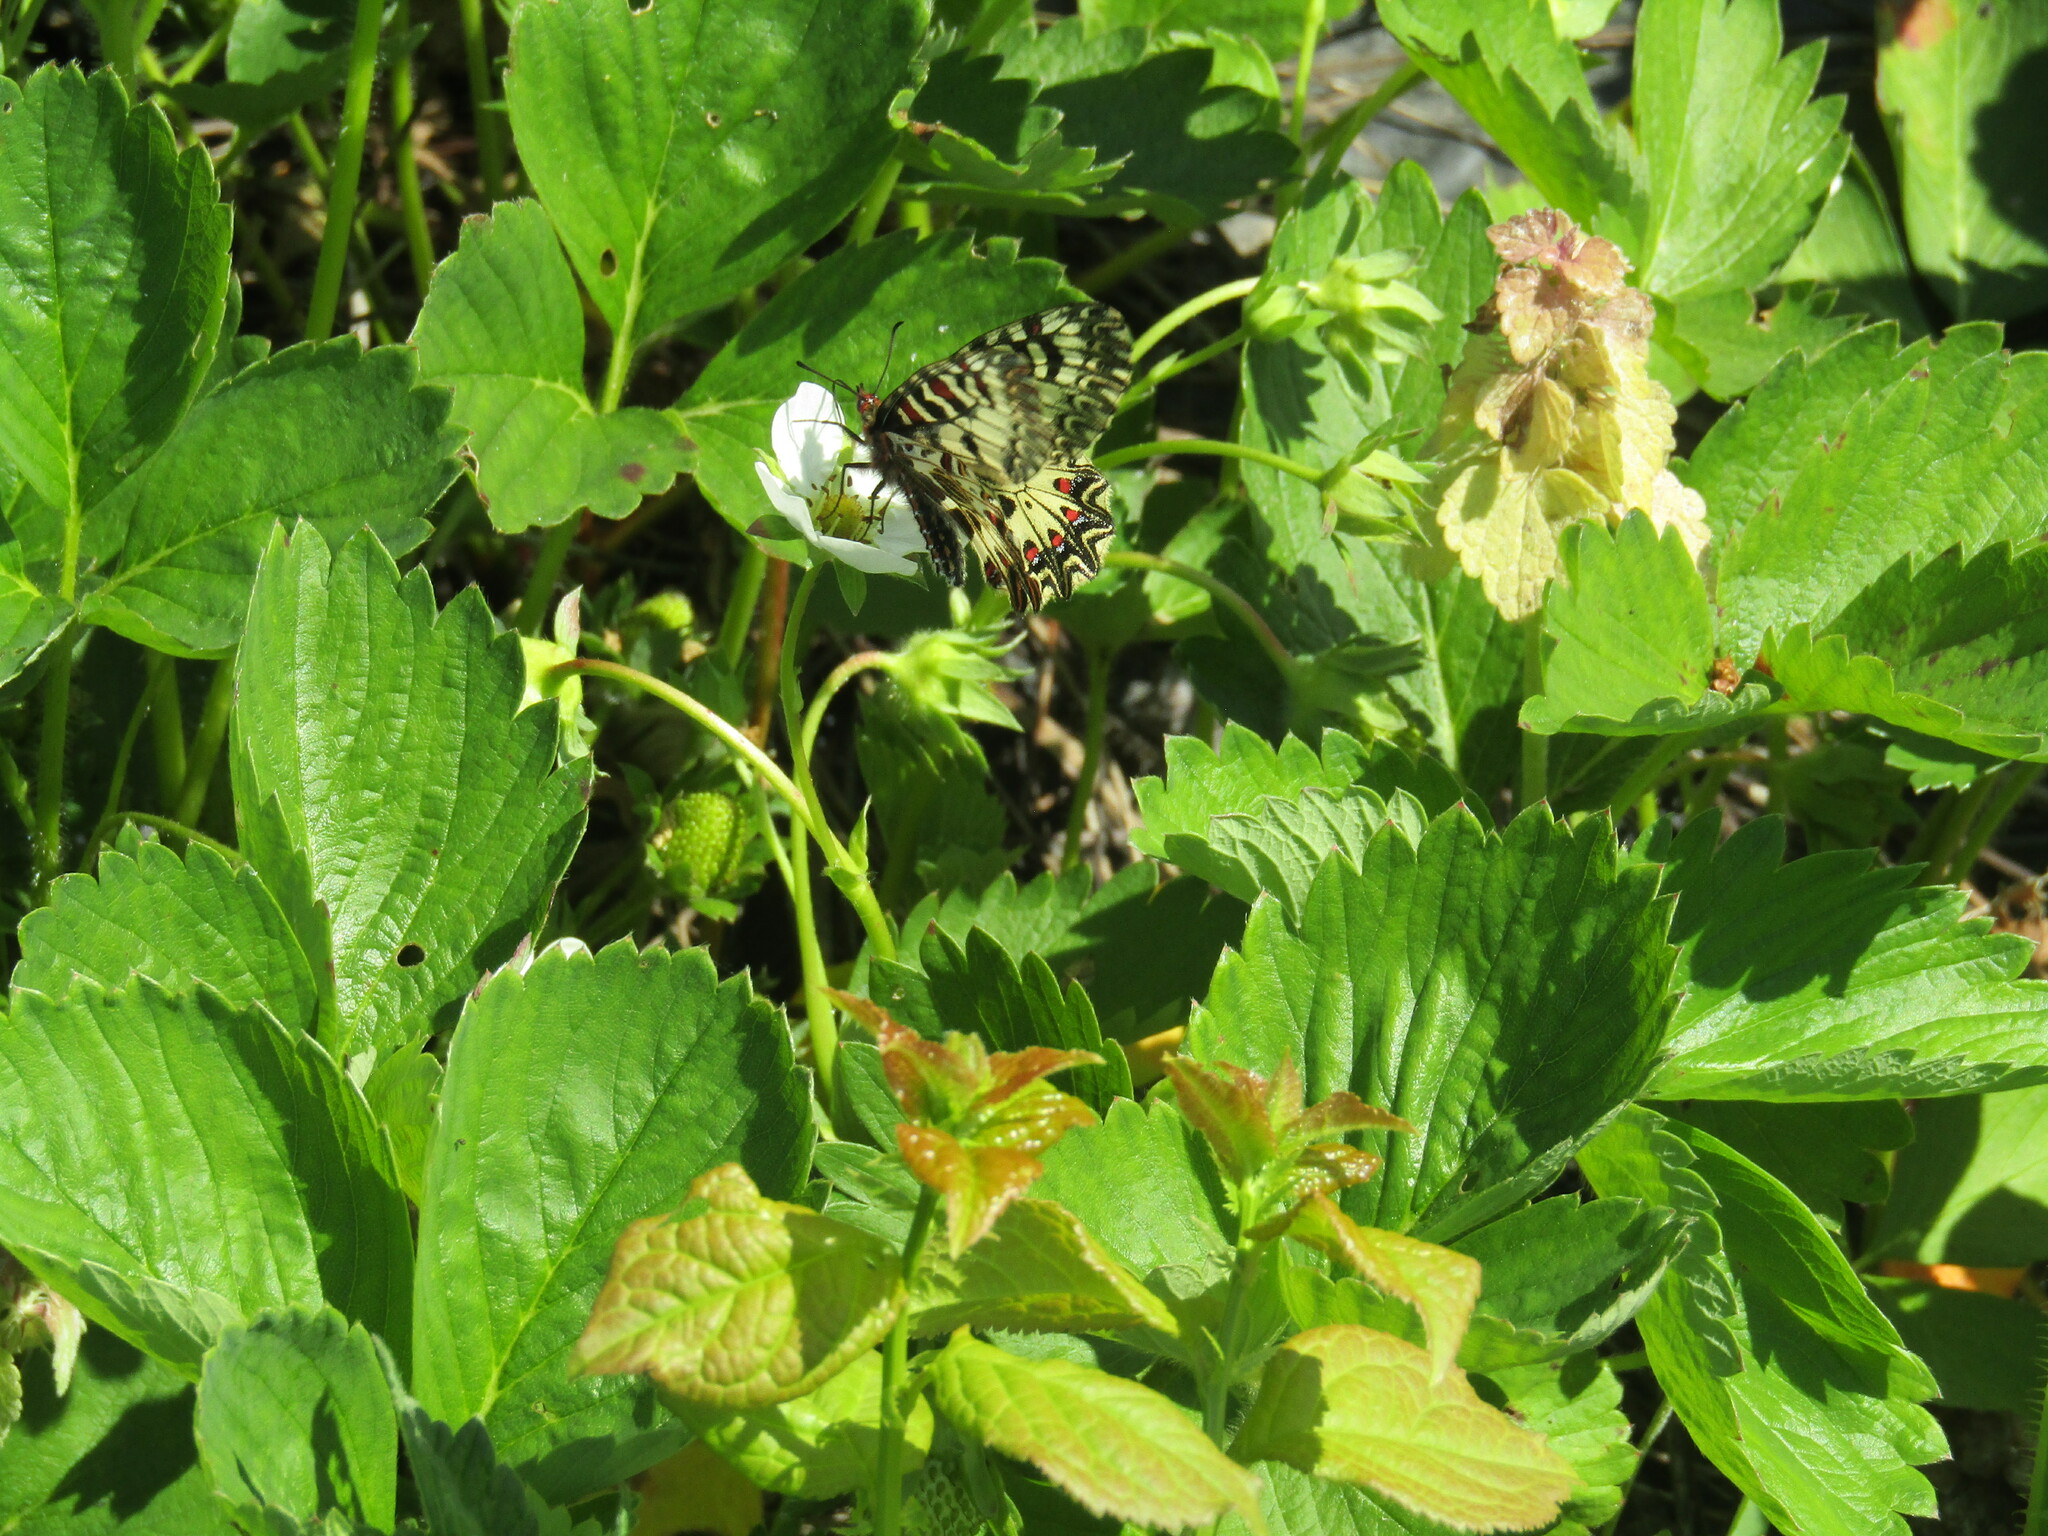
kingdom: Animalia
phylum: Arthropoda
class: Insecta
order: Lepidoptera
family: Papilionidae
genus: Zerynthia
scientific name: Zerynthia polyxena
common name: Southern festoon
